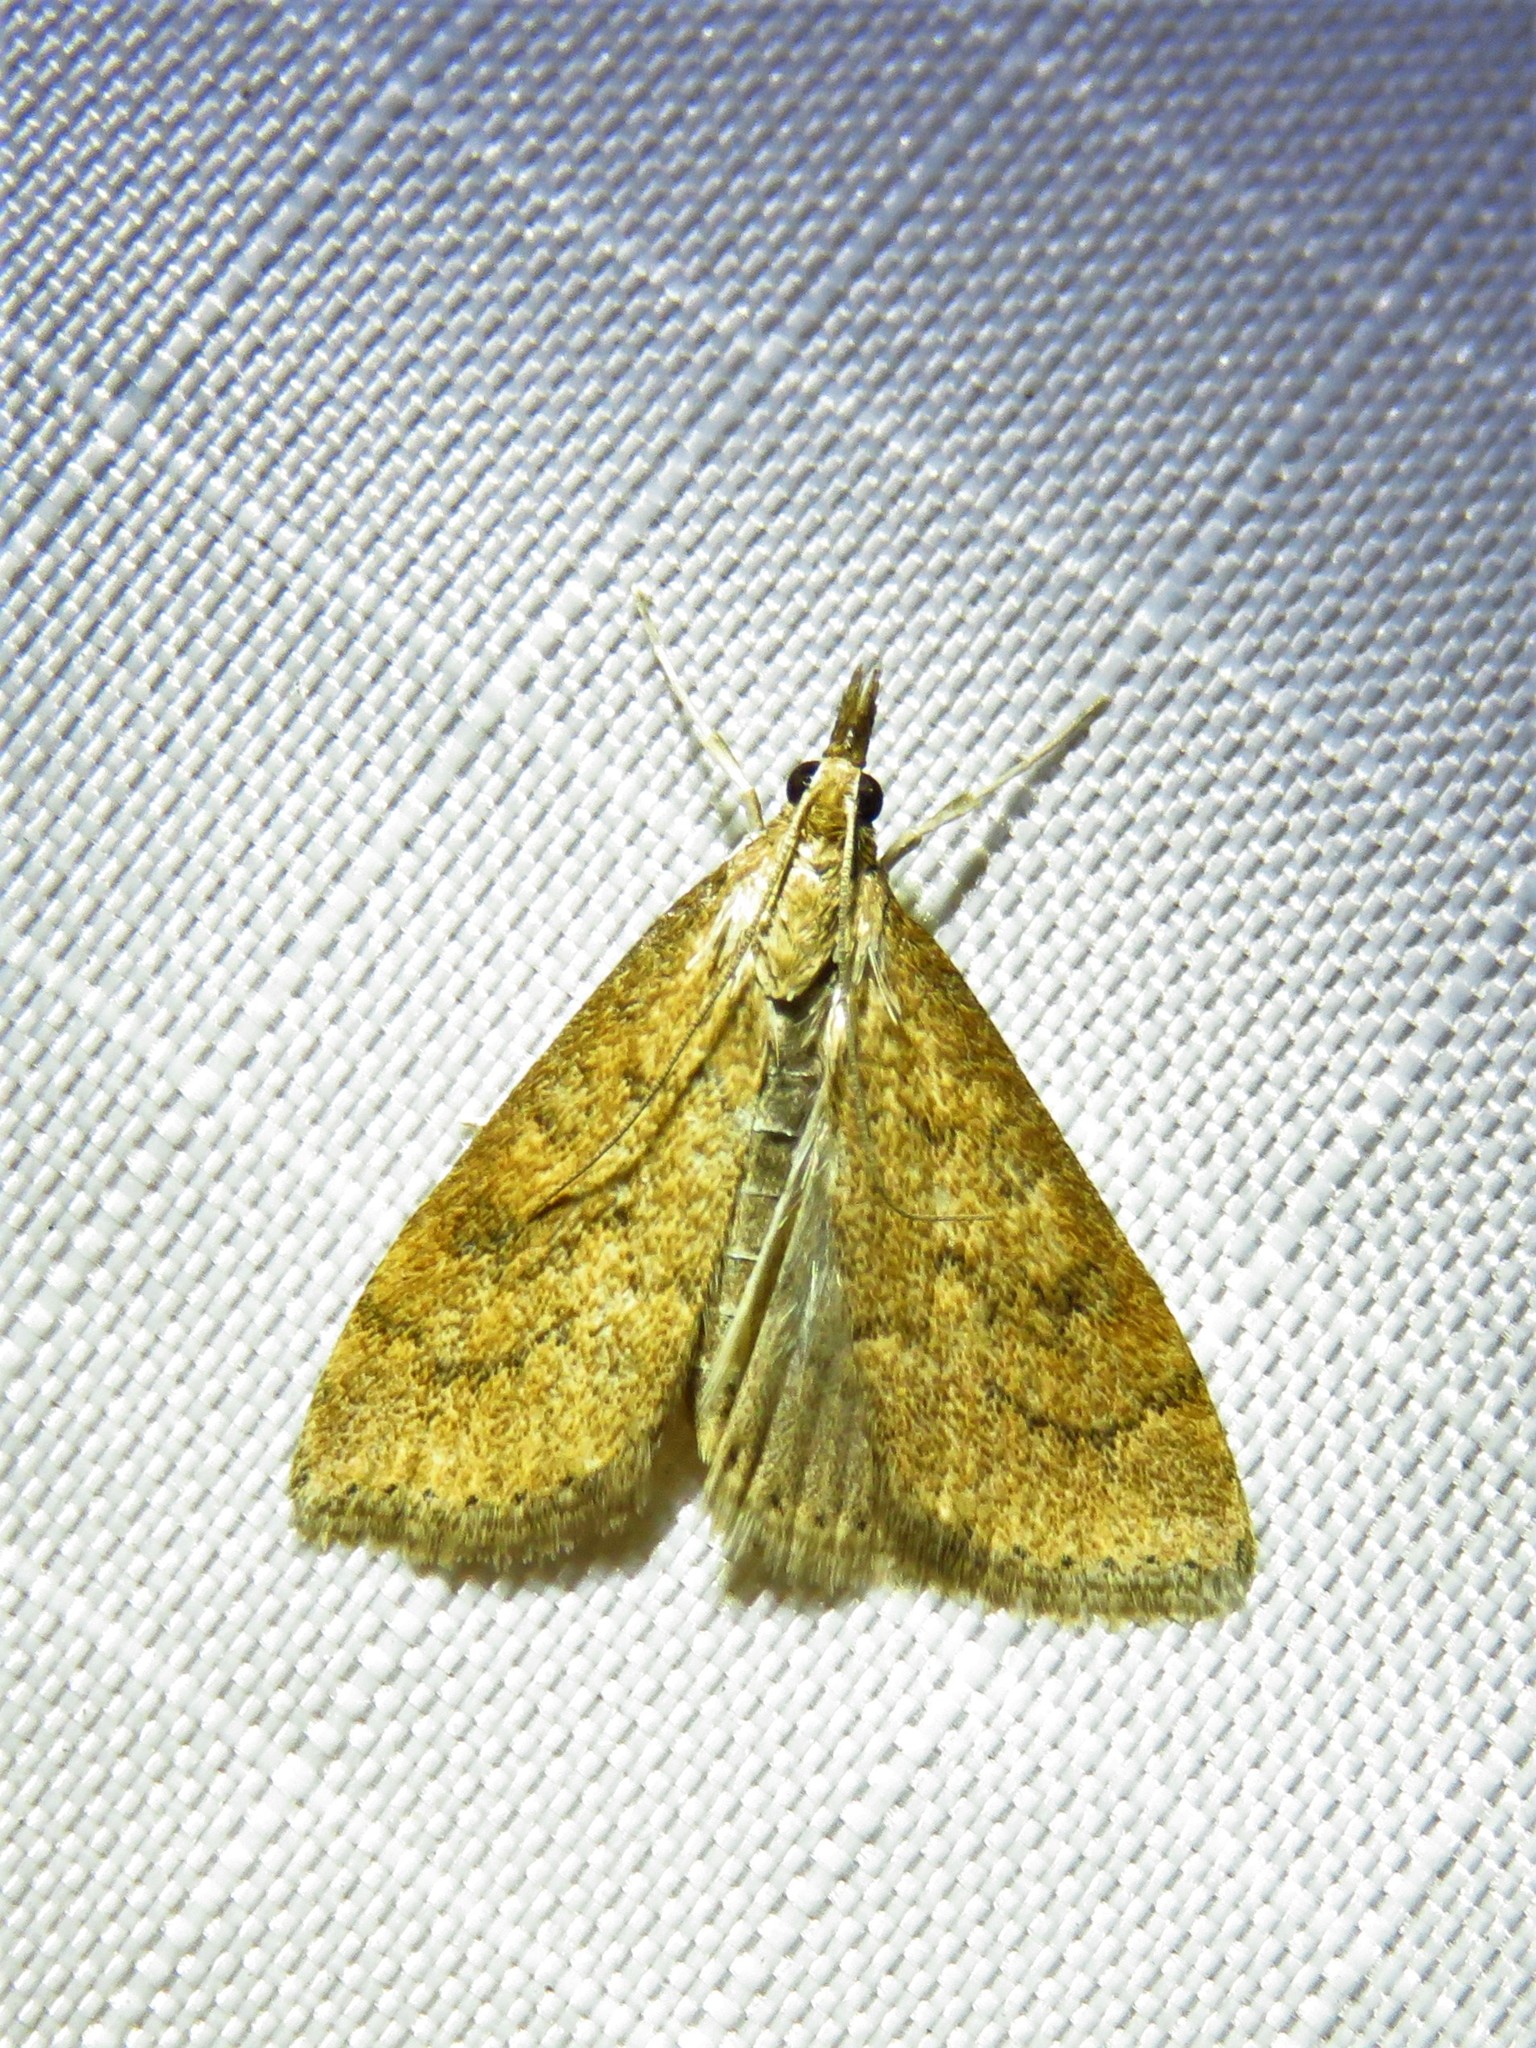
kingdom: Animalia
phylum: Arthropoda
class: Insecta
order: Lepidoptera
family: Crambidae
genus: Udea
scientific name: Udea rubigalis
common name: Celery leaftier moth
